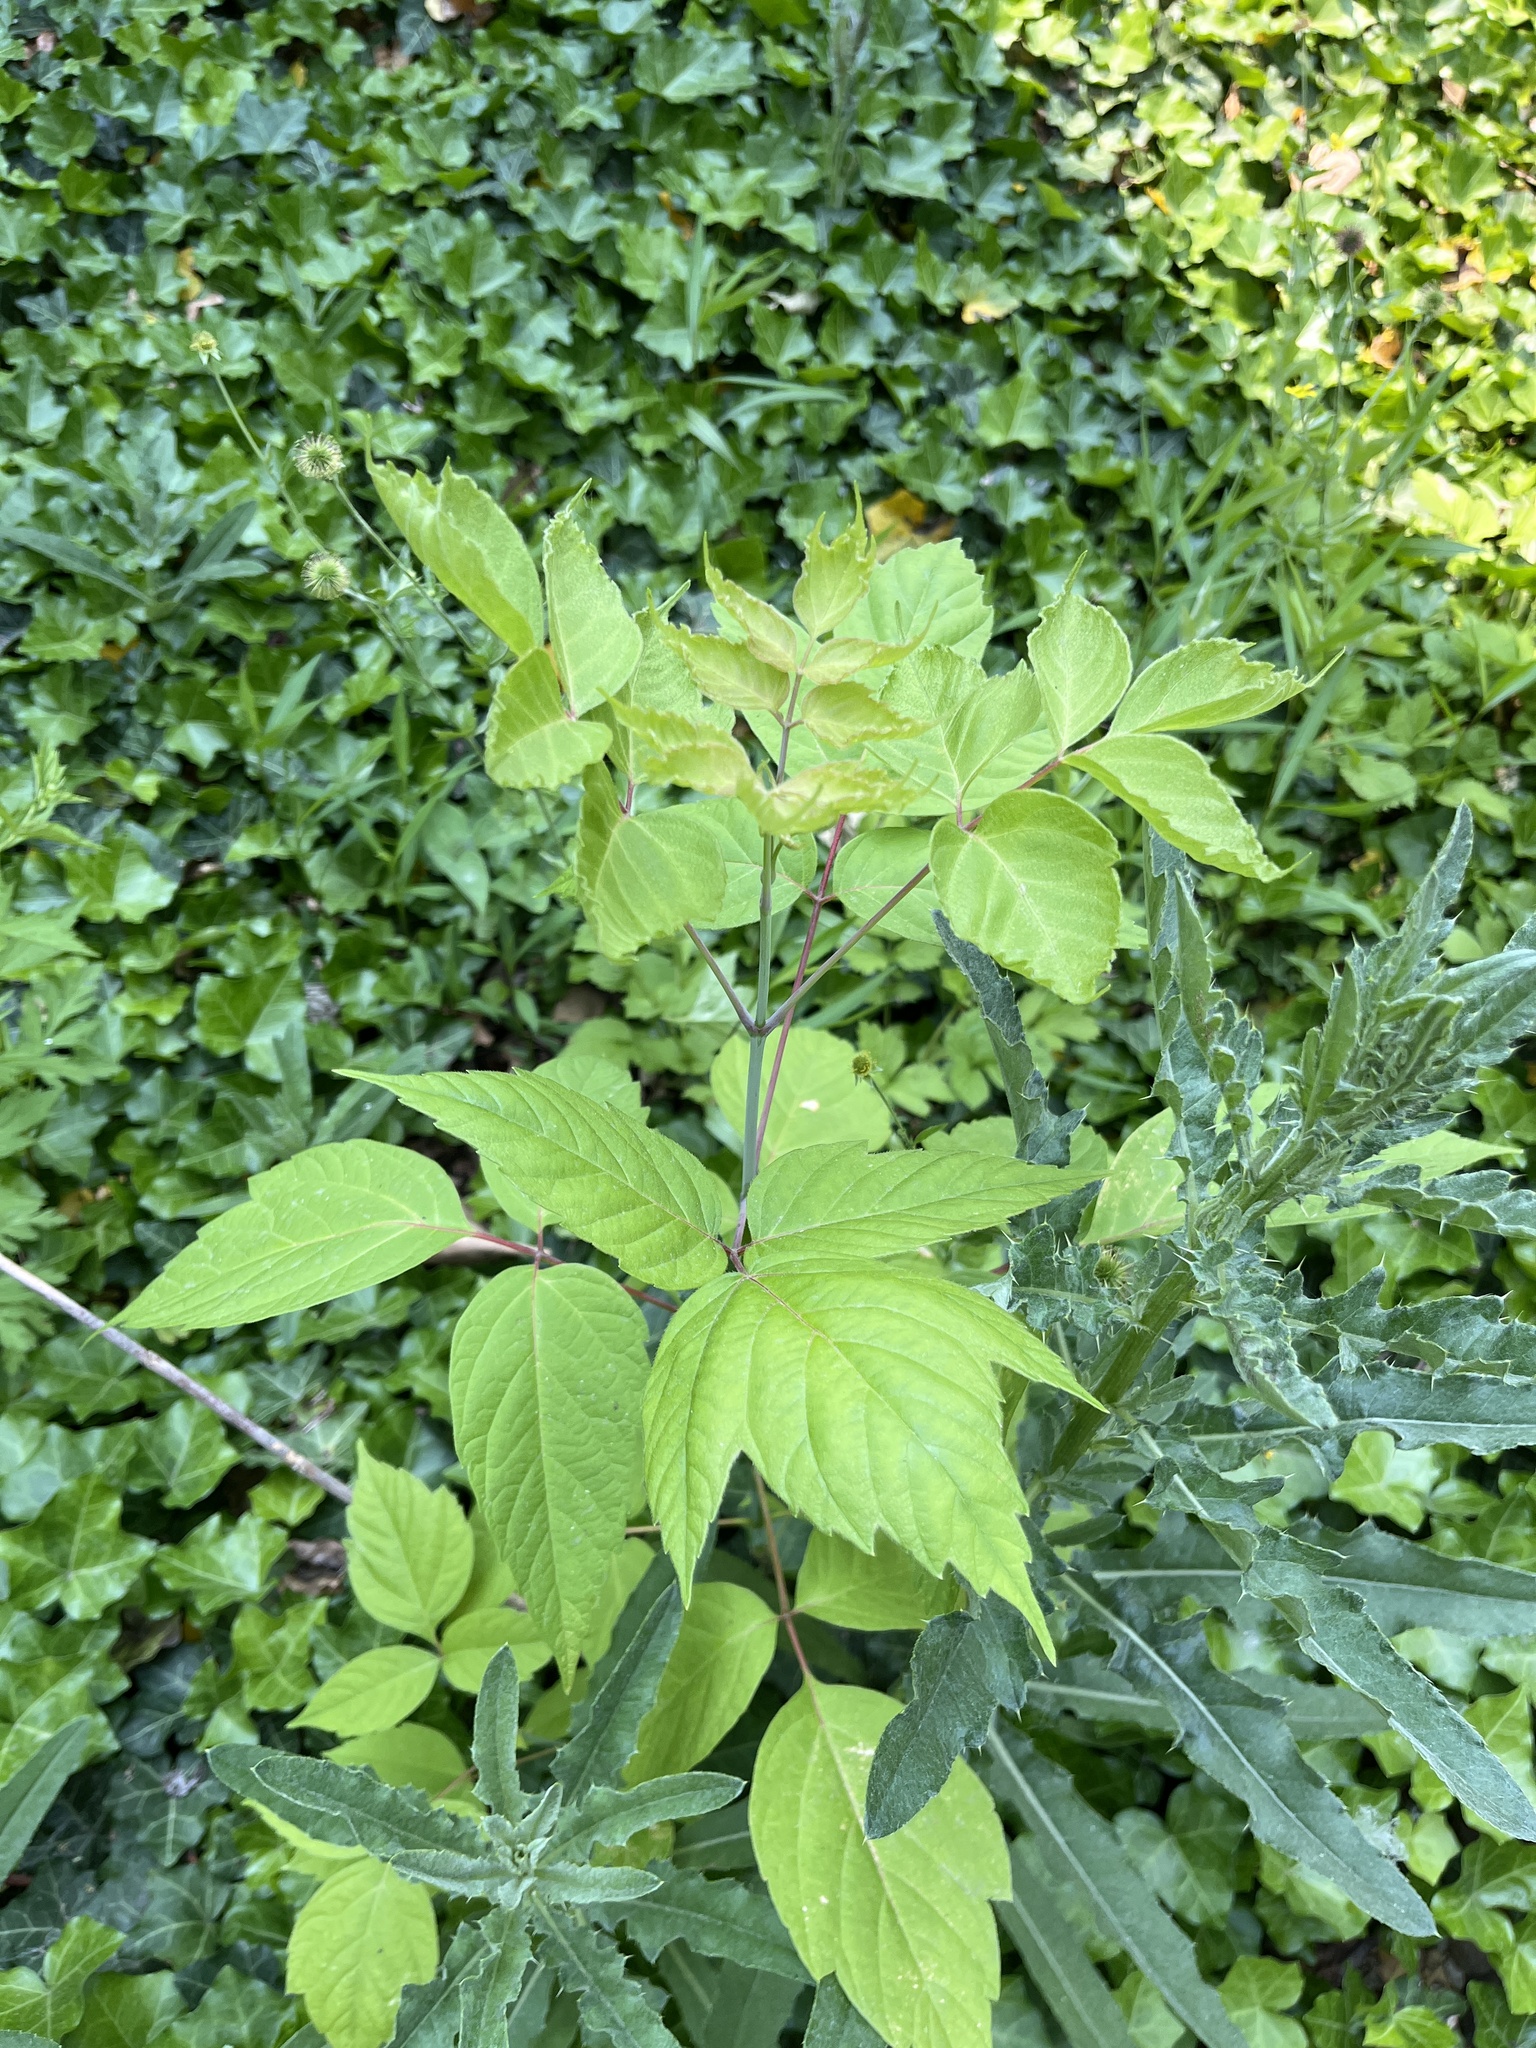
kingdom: Plantae
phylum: Tracheophyta
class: Magnoliopsida
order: Sapindales
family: Sapindaceae
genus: Acer
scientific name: Acer negundo
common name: Ashleaf maple
